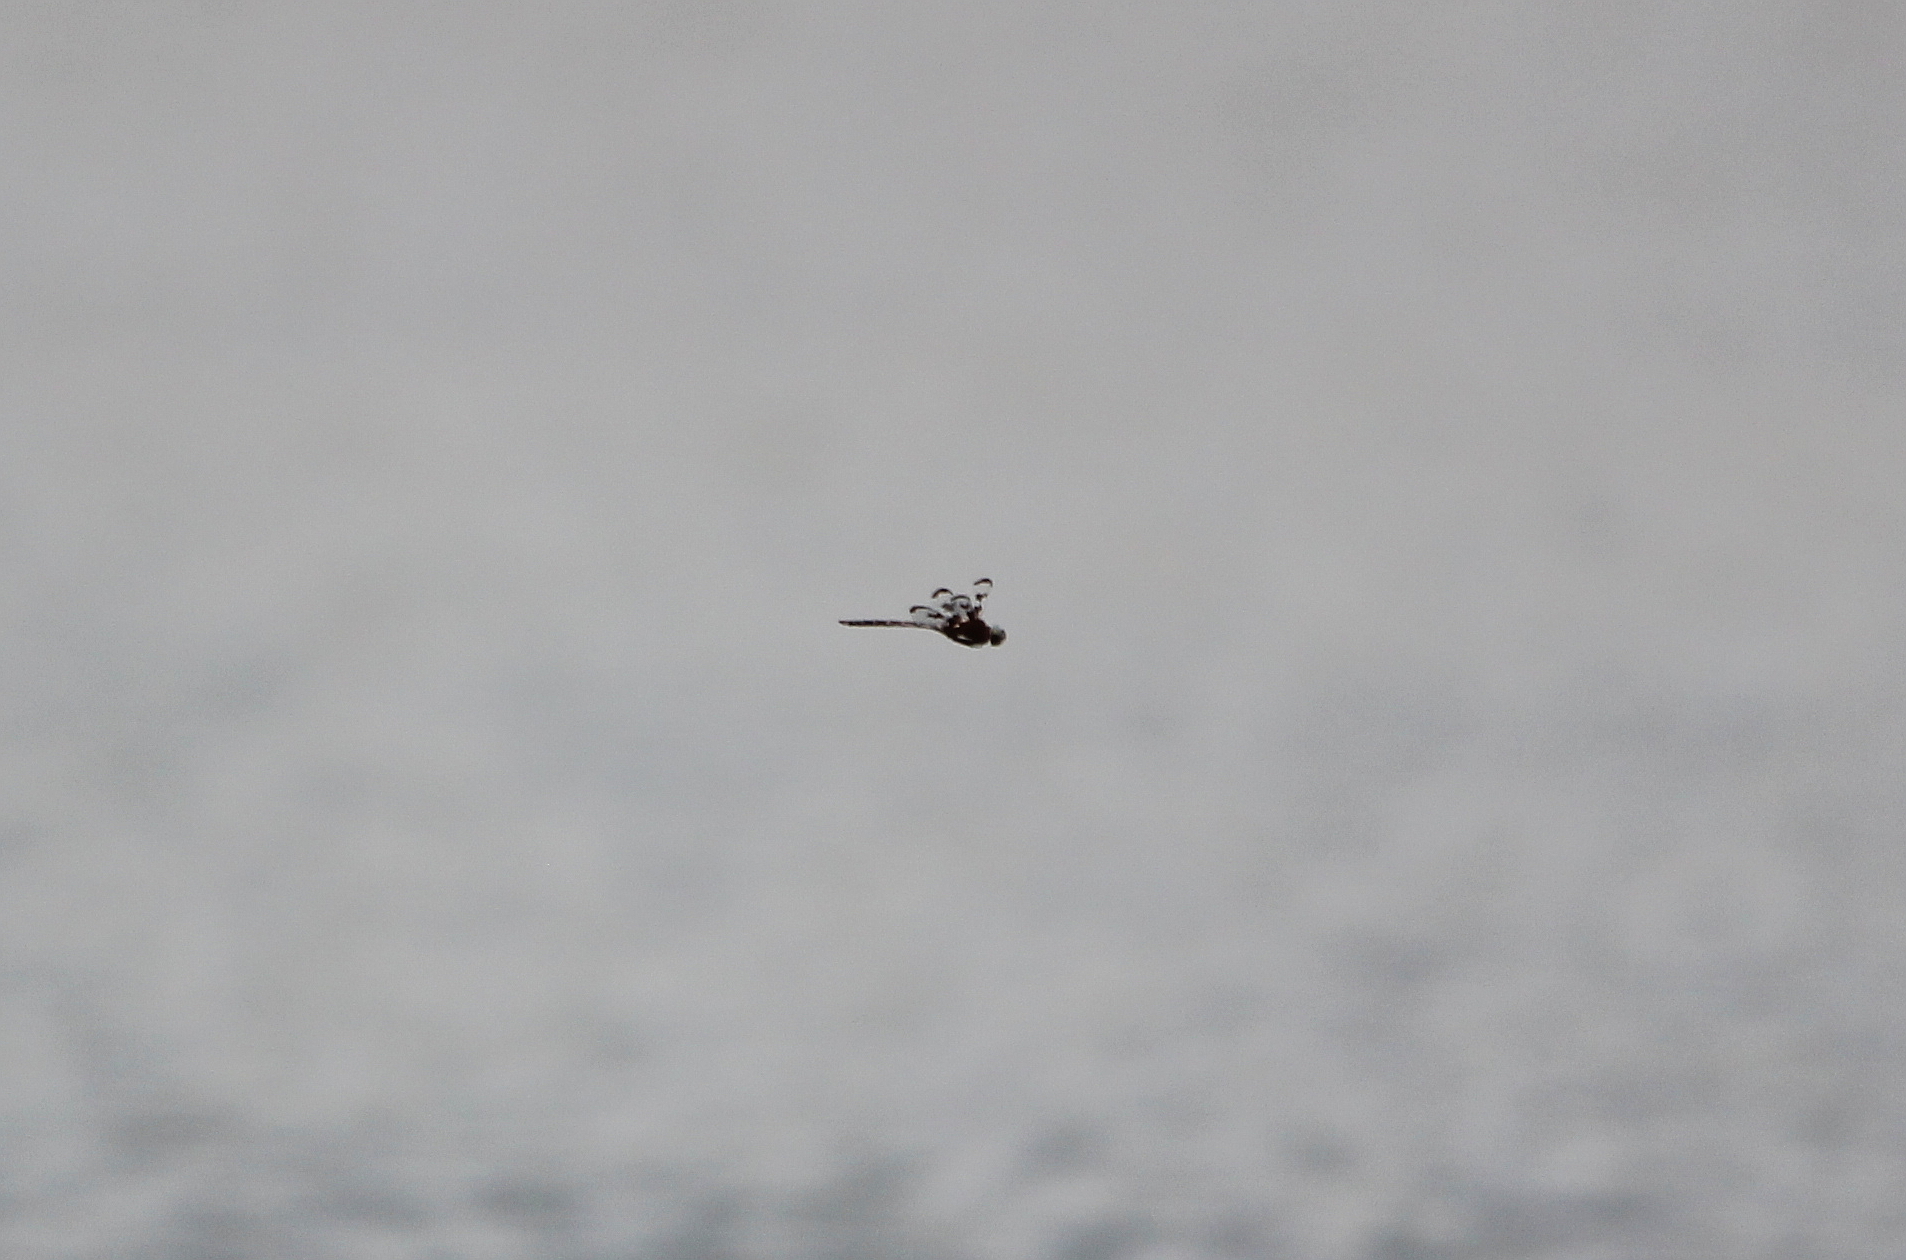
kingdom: Animalia
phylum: Arthropoda
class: Insecta
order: Odonata
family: Corduliidae
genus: Epitheca
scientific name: Epitheca princeps
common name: Prince baskettail
